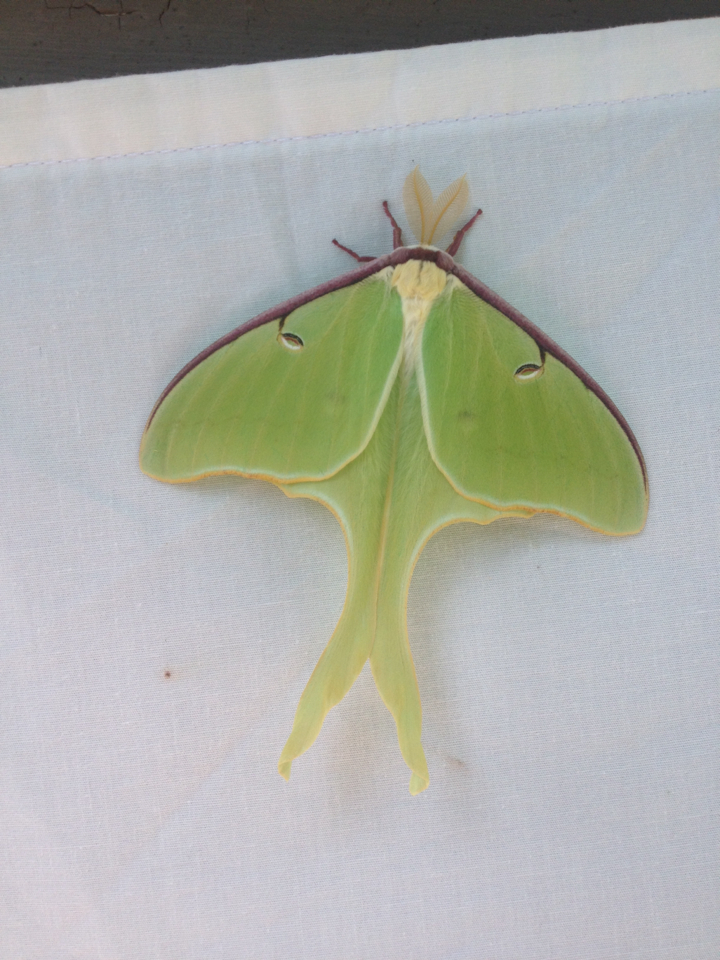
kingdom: Animalia
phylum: Arthropoda
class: Insecta
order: Lepidoptera
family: Saturniidae
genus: Actias
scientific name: Actias luna
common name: Luna moth
